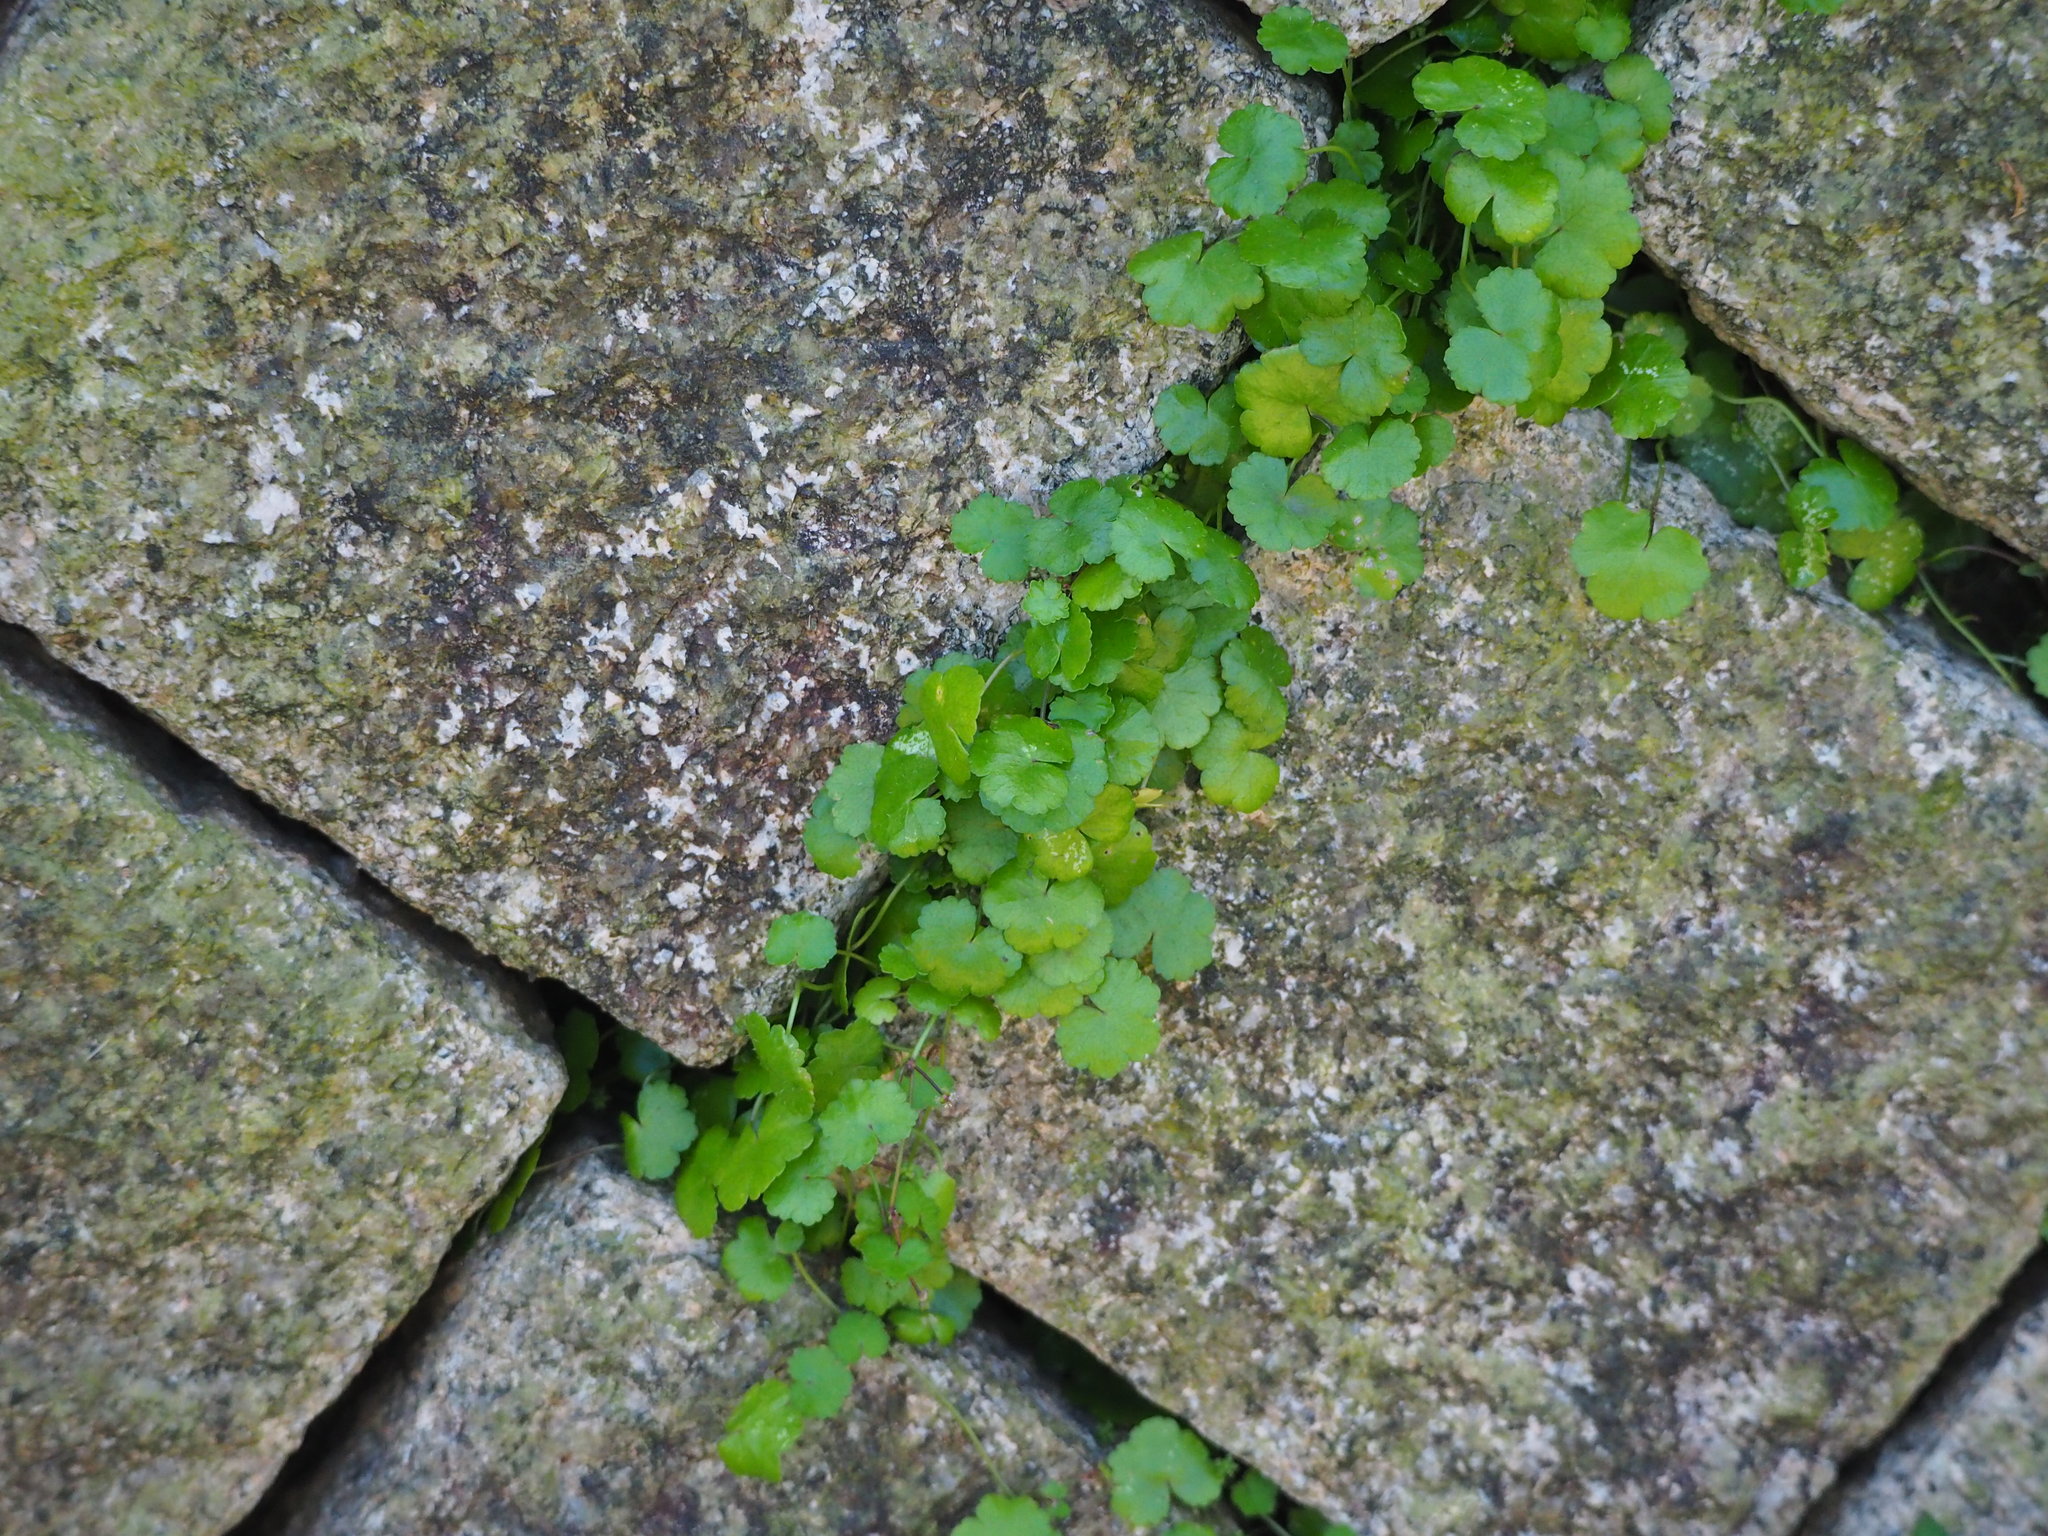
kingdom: Plantae
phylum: Tracheophyta
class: Magnoliopsida
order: Apiales
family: Araliaceae
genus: Hydrocotyle
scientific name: Hydrocotyle sibthorpioides
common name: Lawn marshpennywort
